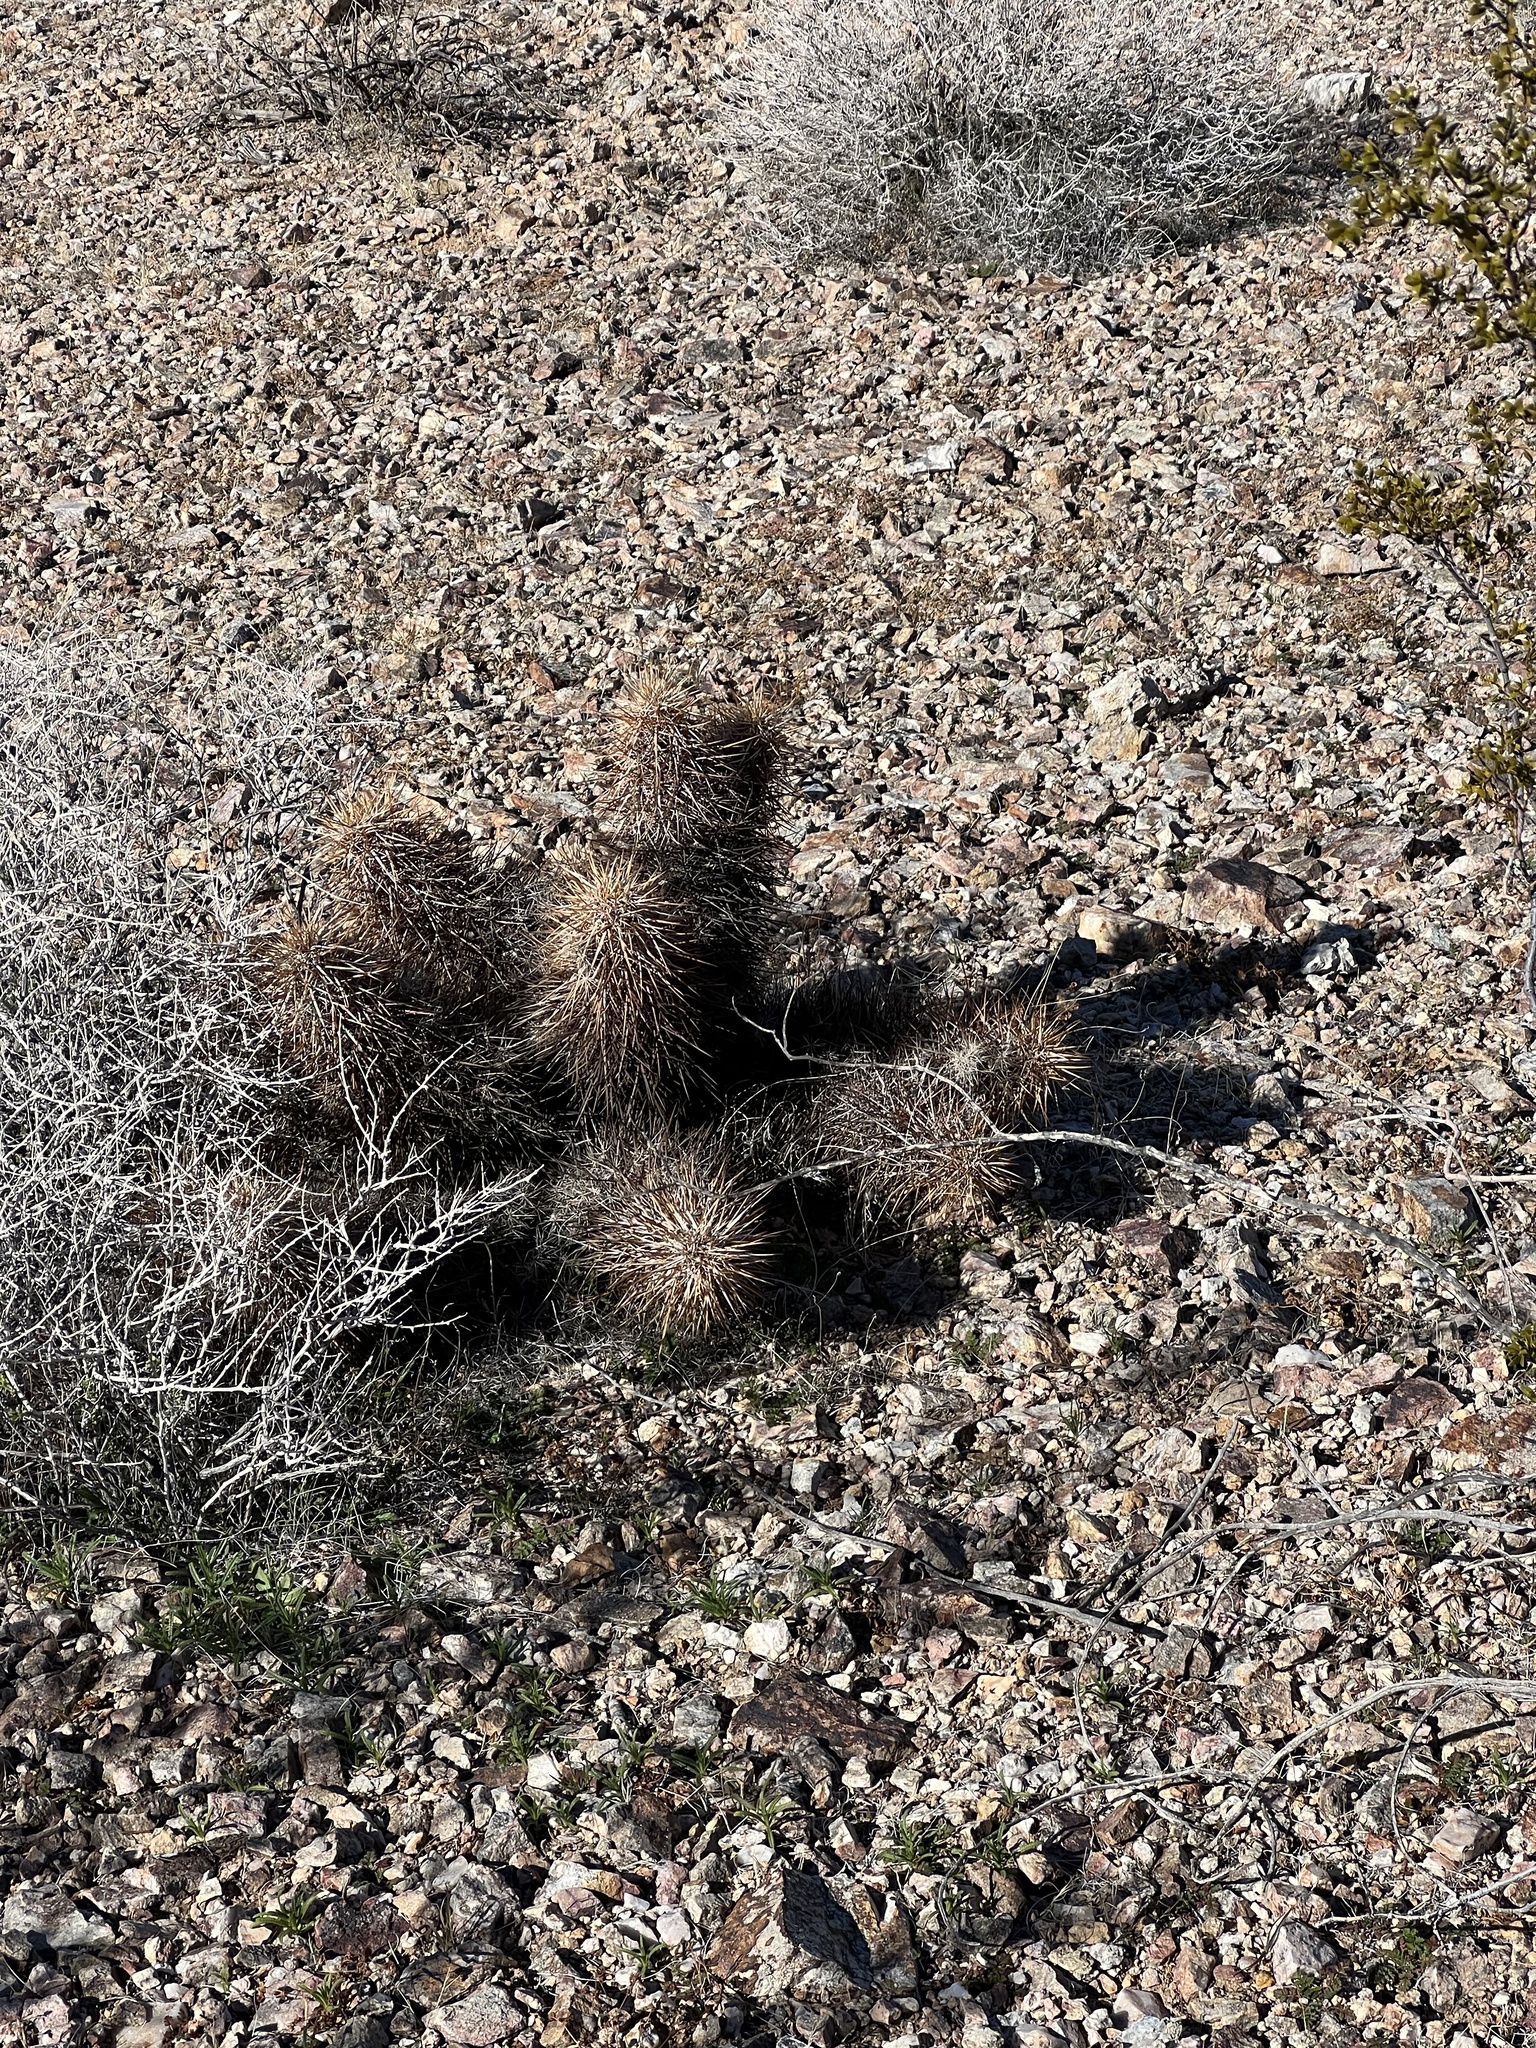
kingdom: Plantae
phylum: Tracheophyta
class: Magnoliopsida
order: Caryophyllales
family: Cactaceae
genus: Echinocereus
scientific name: Echinocereus engelmannii
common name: Engelmann's hedgehog cactus
